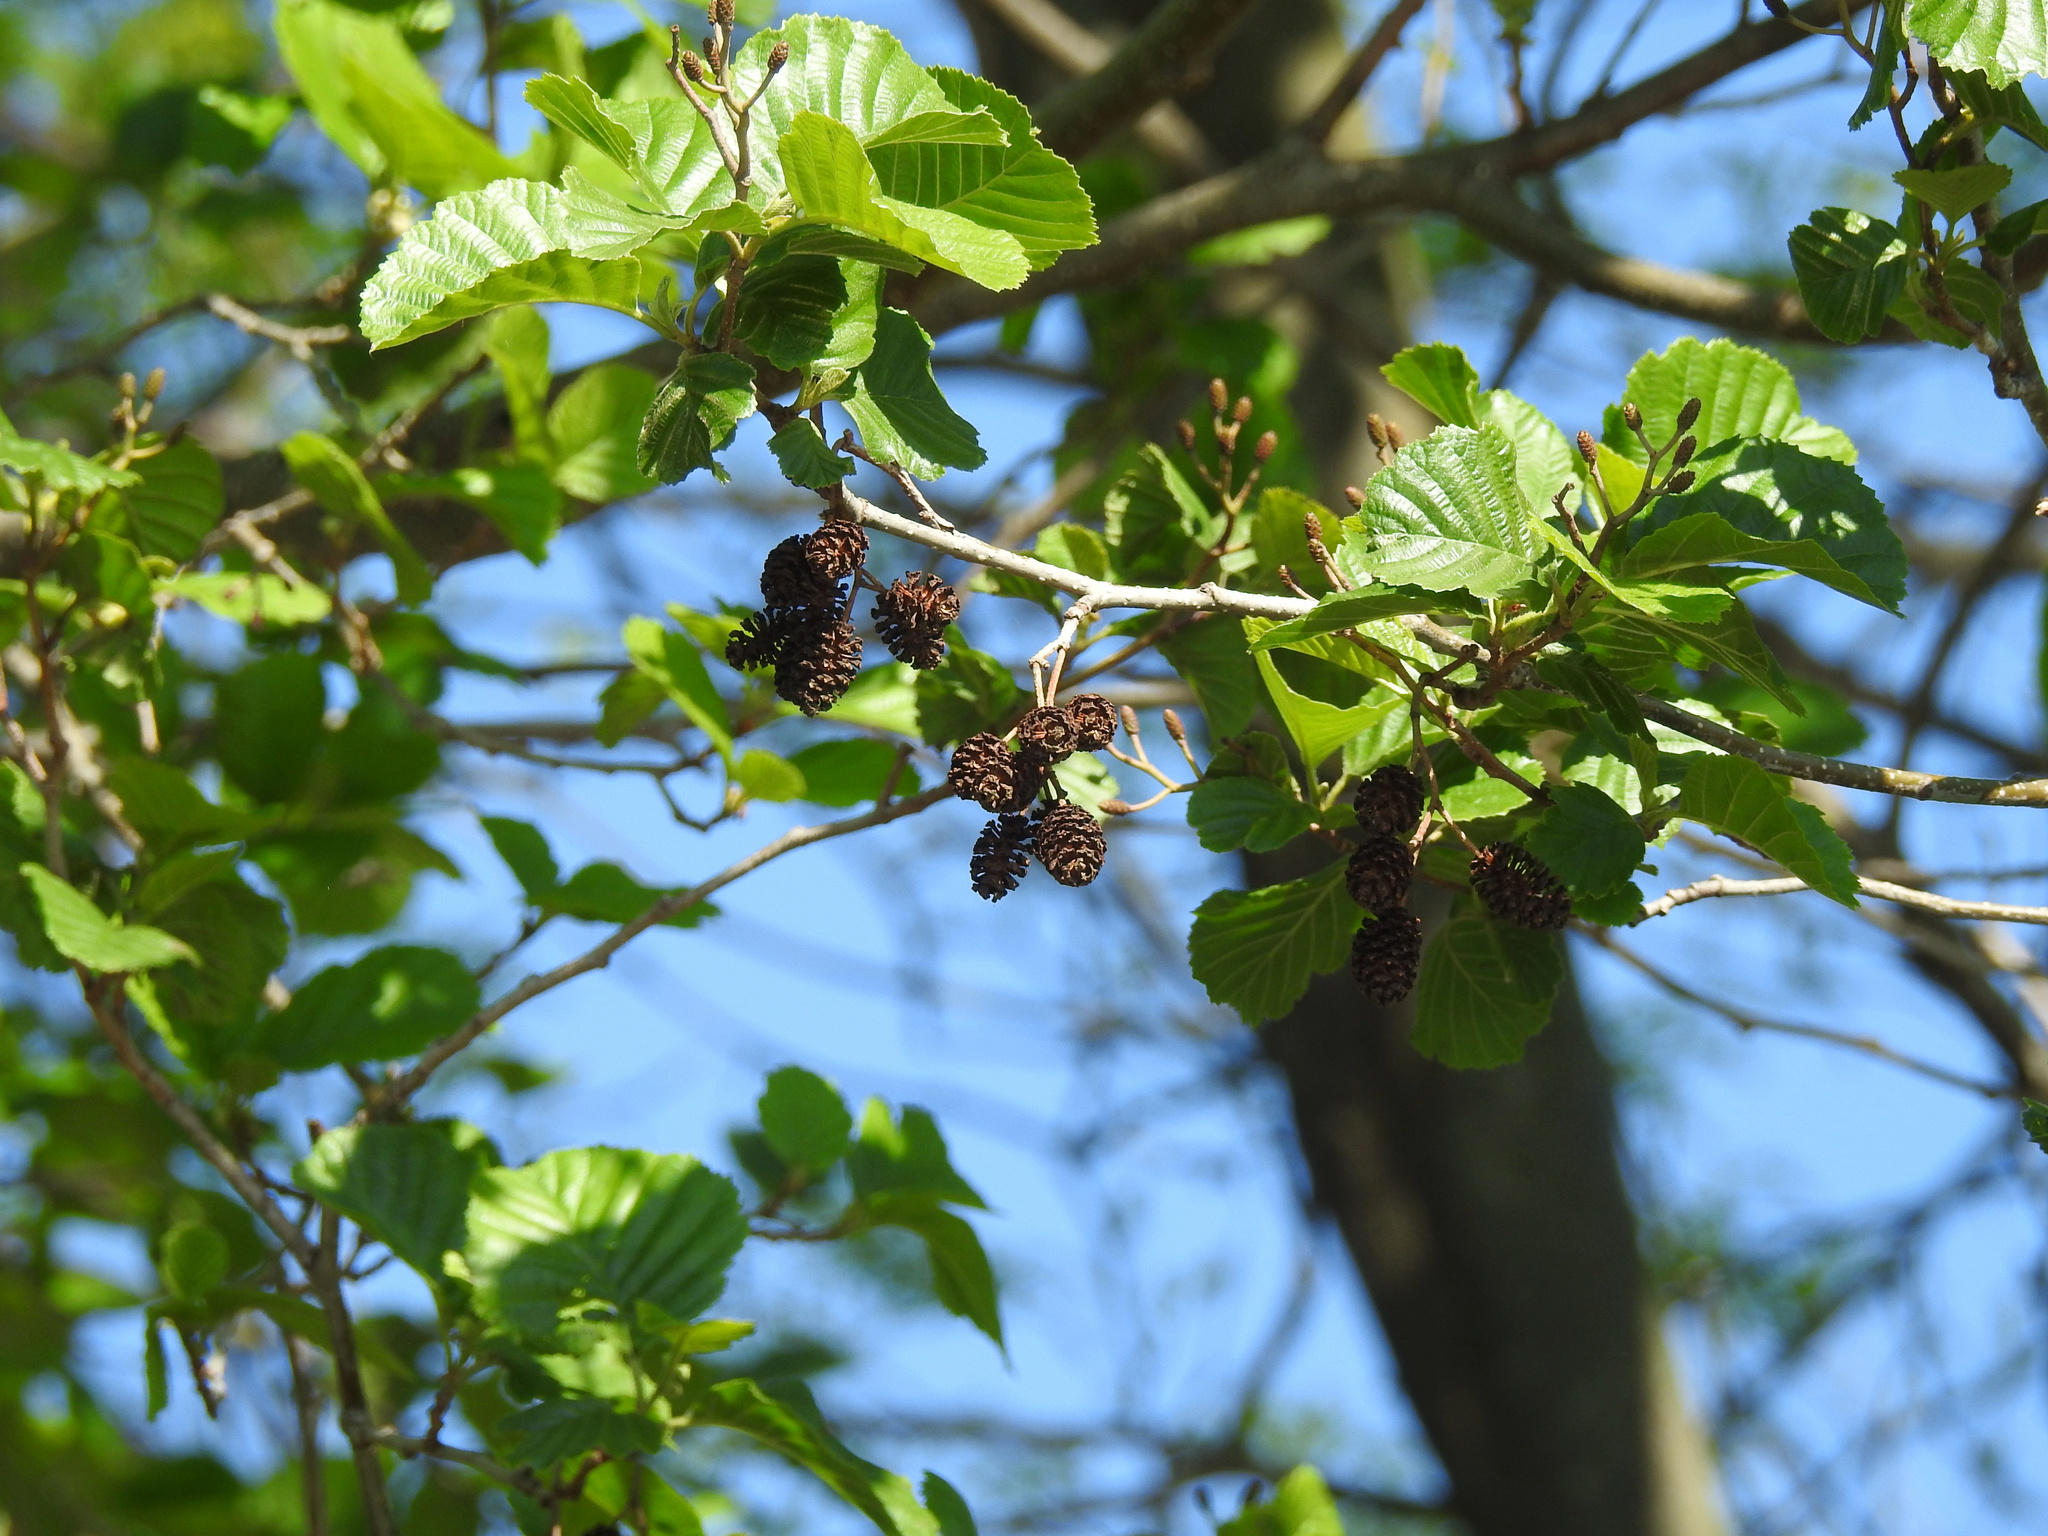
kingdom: Plantae
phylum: Tracheophyta
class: Magnoliopsida
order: Fagales
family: Betulaceae
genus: Alnus
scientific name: Alnus glutinosa
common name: Black alder
